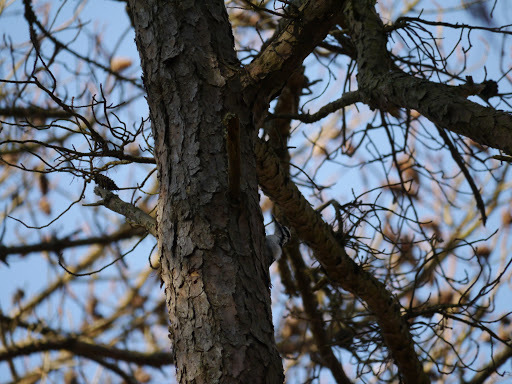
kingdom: Animalia
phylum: Chordata
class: Aves
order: Piciformes
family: Picidae
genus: Leuconotopicus
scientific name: Leuconotopicus villosus
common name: Hairy woodpecker
